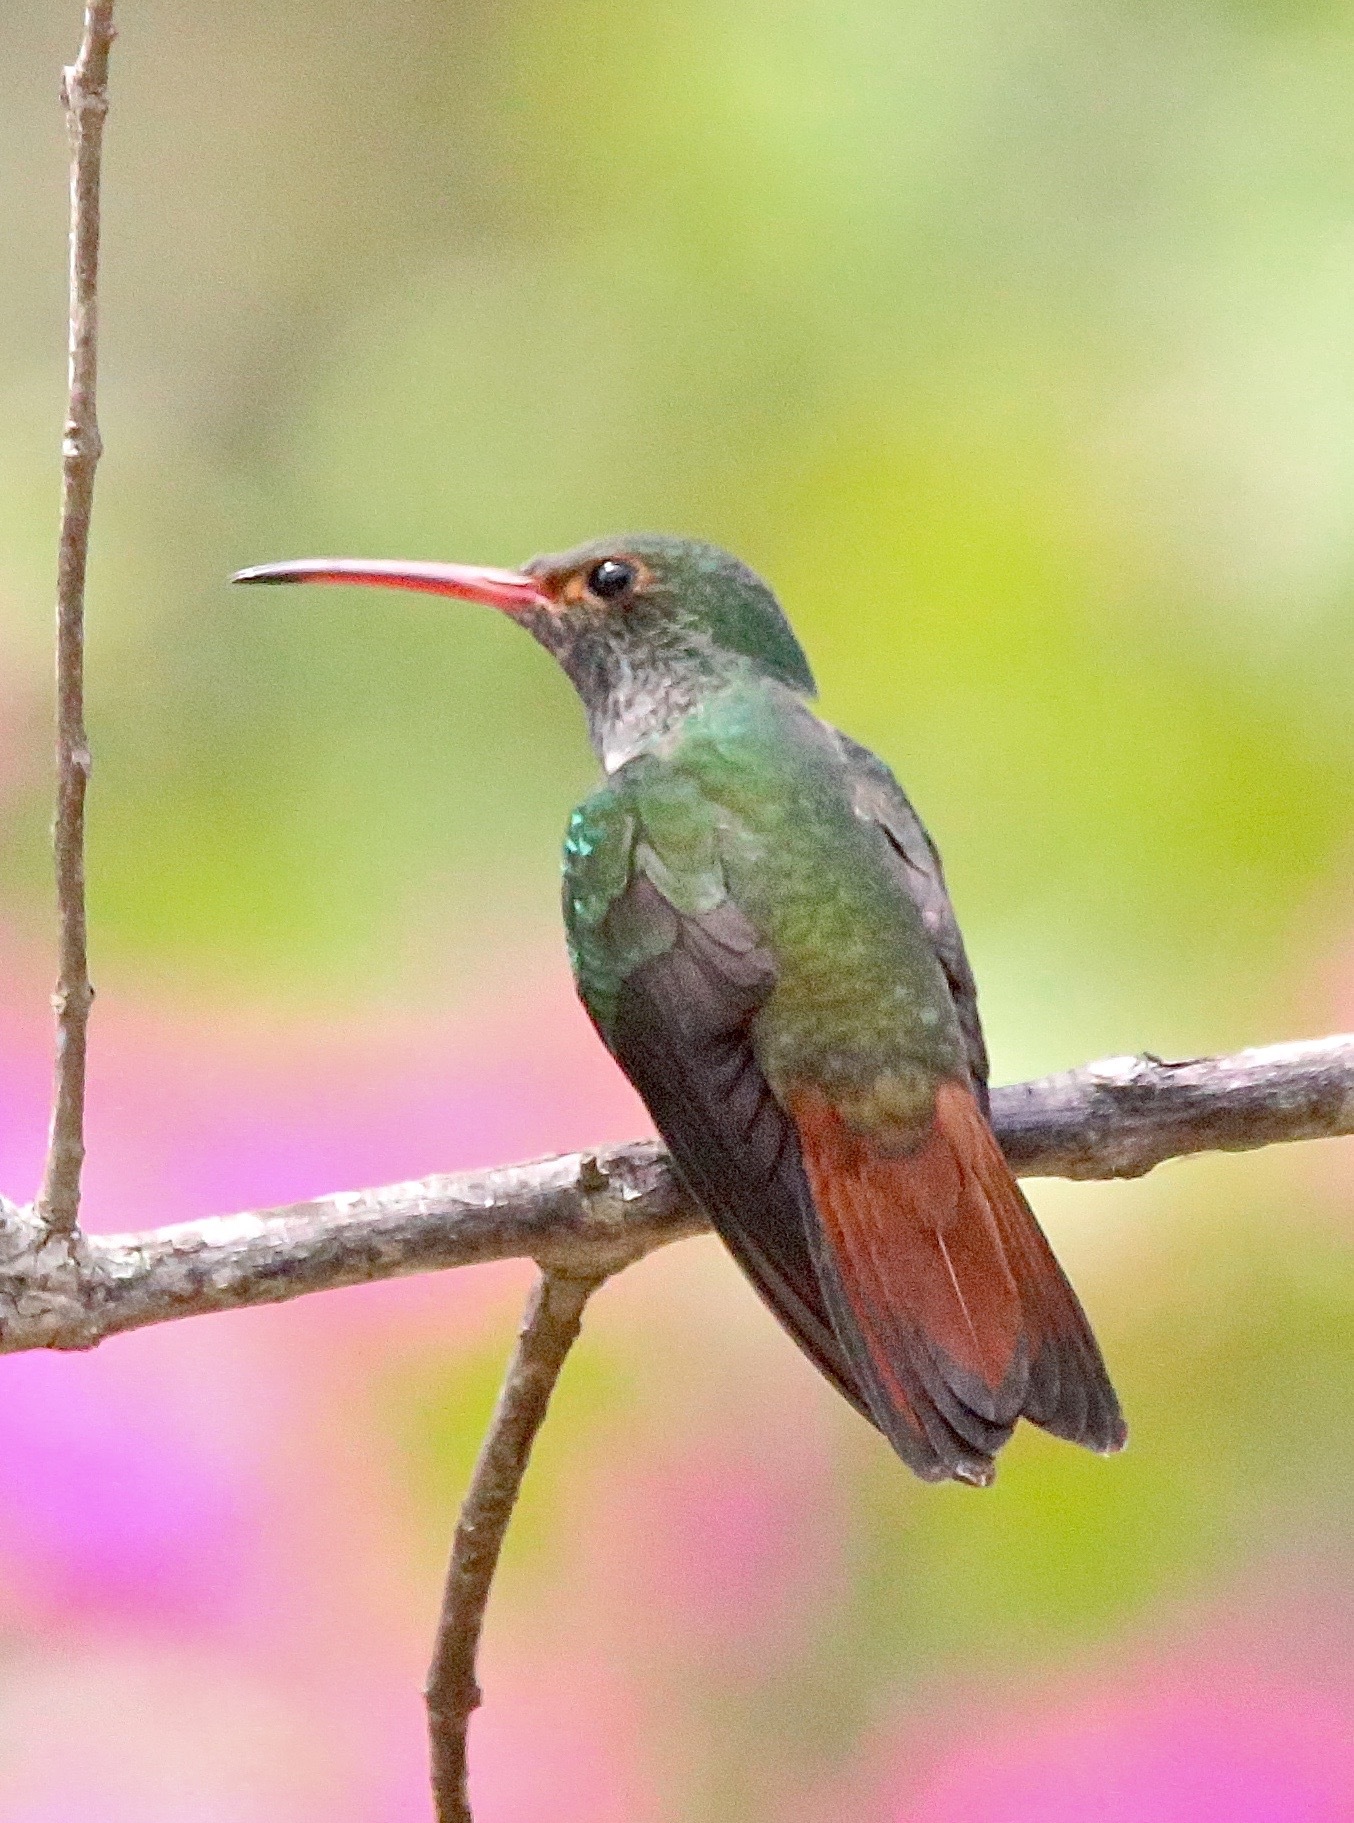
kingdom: Animalia
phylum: Chordata
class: Aves
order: Apodiformes
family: Trochilidae
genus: Amazilia
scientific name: Amazilia tzacatl
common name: Rufous-tailed hummingbird
